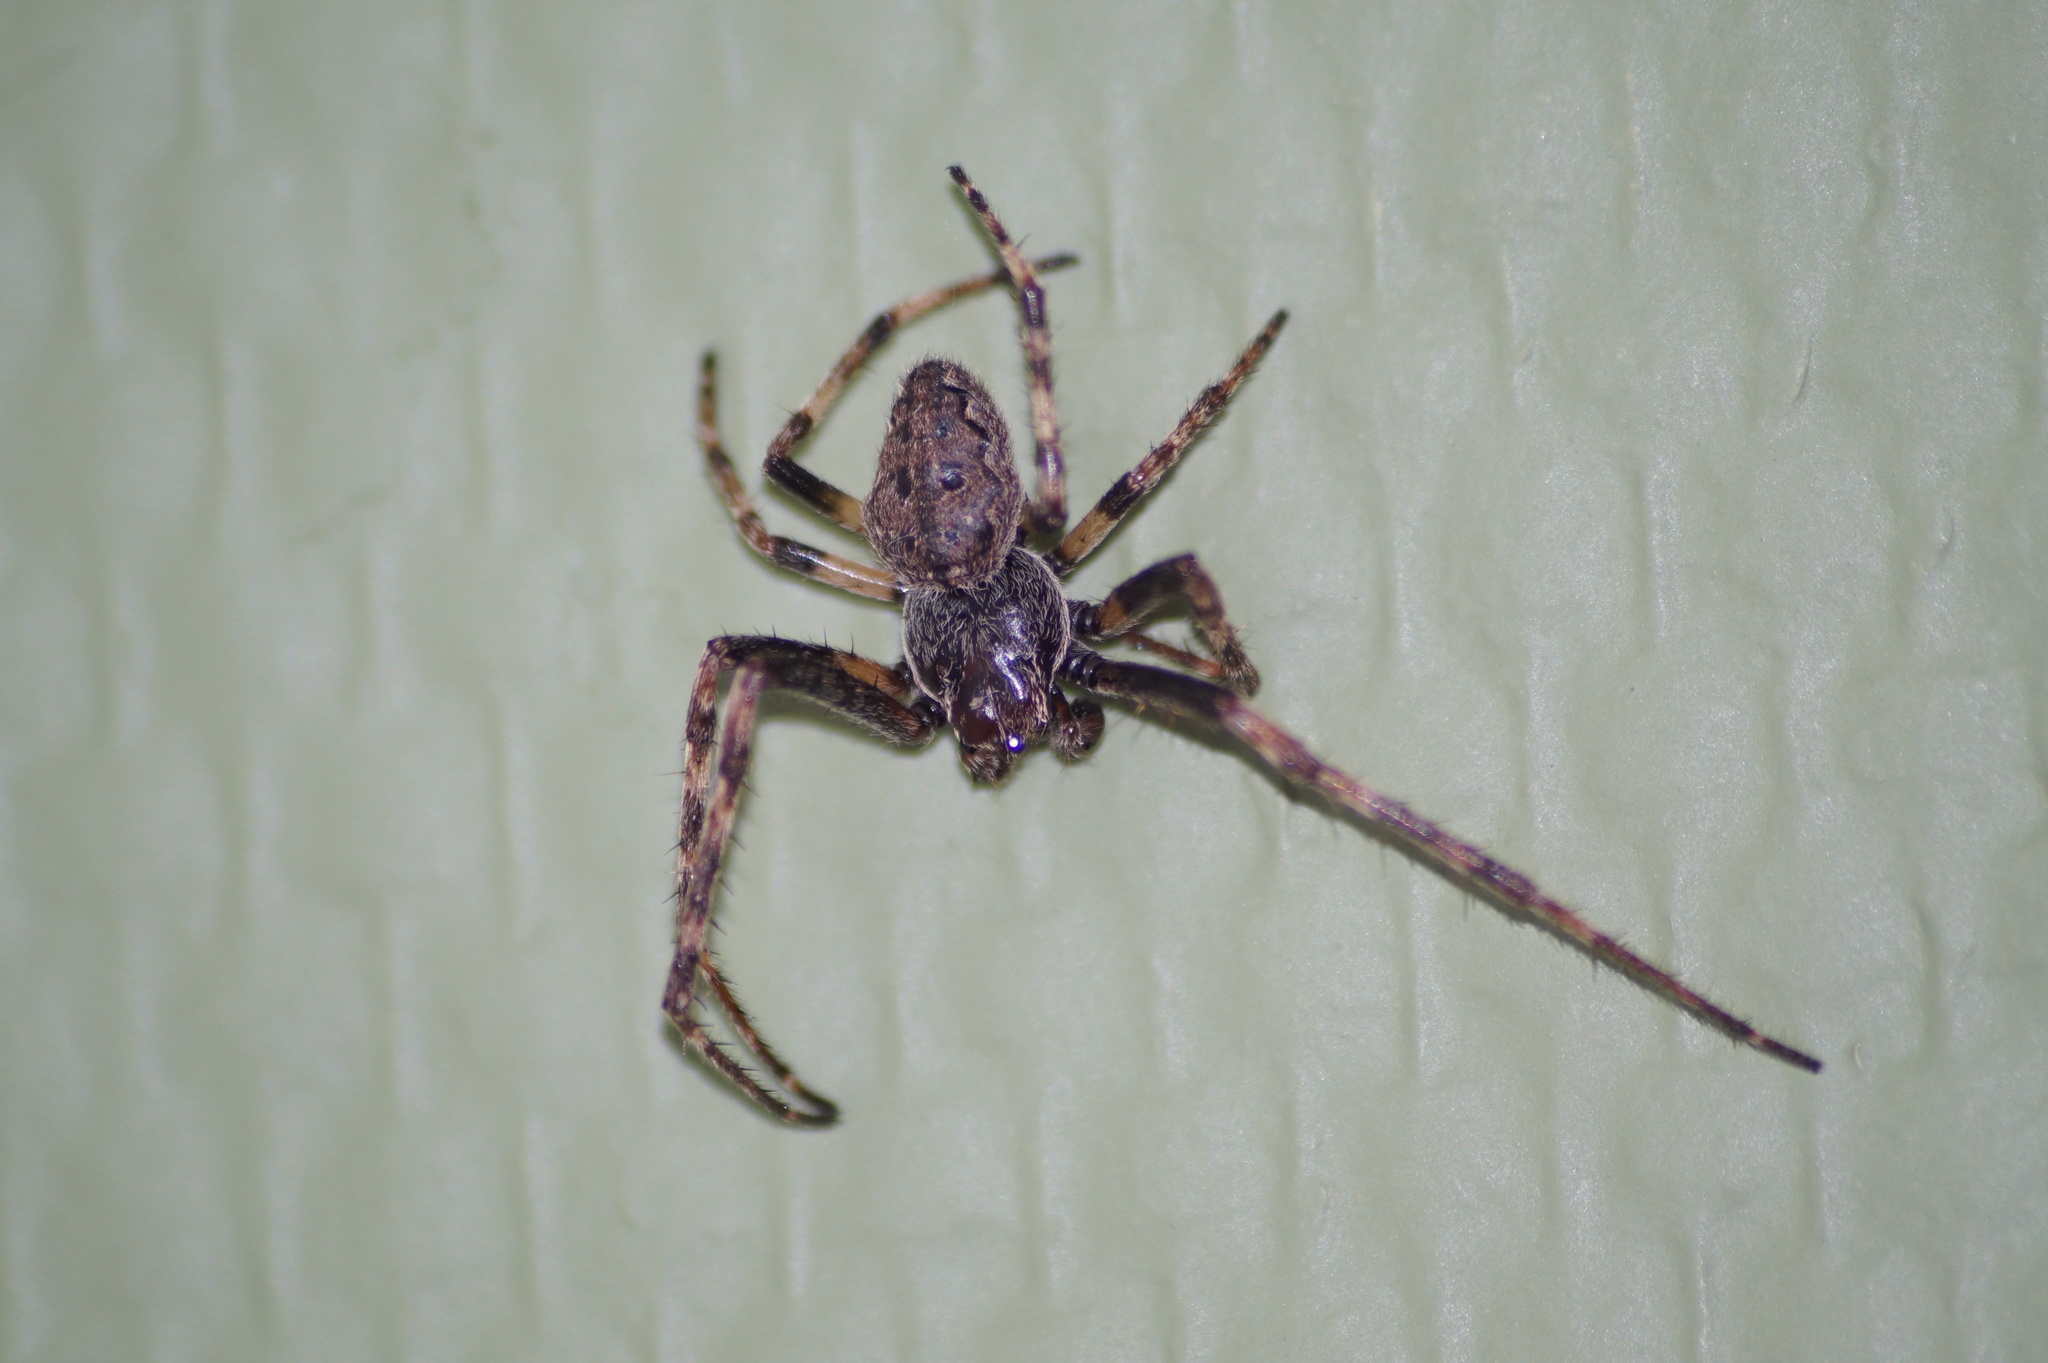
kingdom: Animalia
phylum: Arthropoda
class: Arachnida
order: Araneae
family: Araneidae
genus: Nuctenea
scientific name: Nuctenea umbratica
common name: Toad spider
